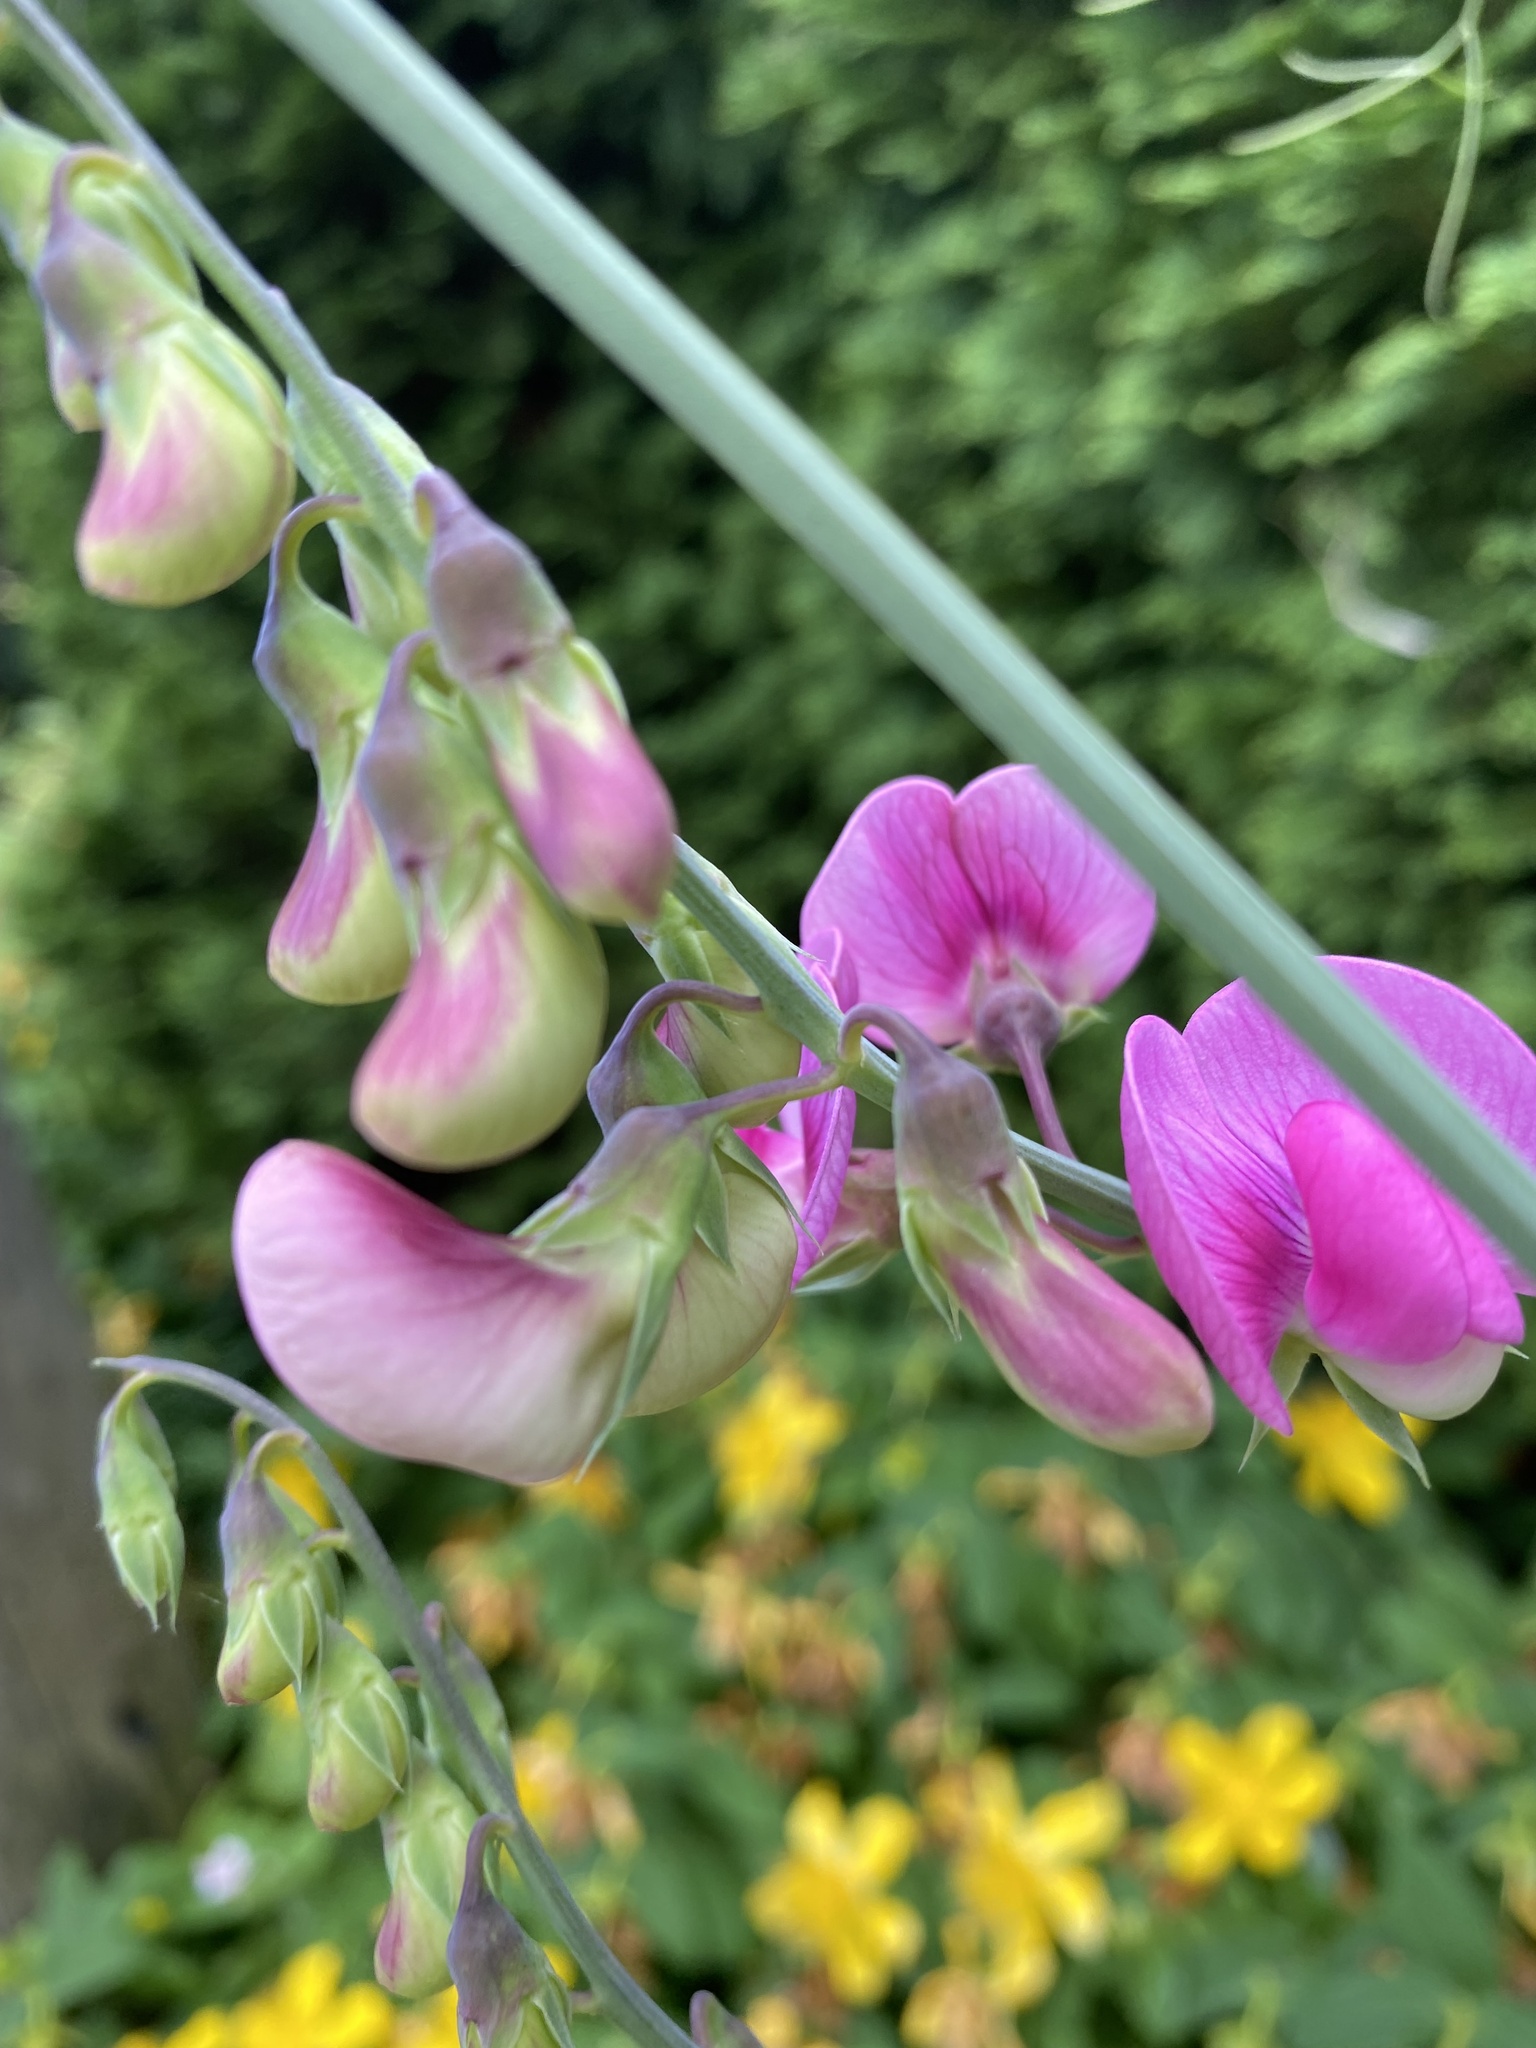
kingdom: Plantae
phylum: Tracheophyta
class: Magnoliopsida
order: Fabales
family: Fabaceae
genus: Lathyrus
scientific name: Lathyrus latifolius
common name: Perennial pea
